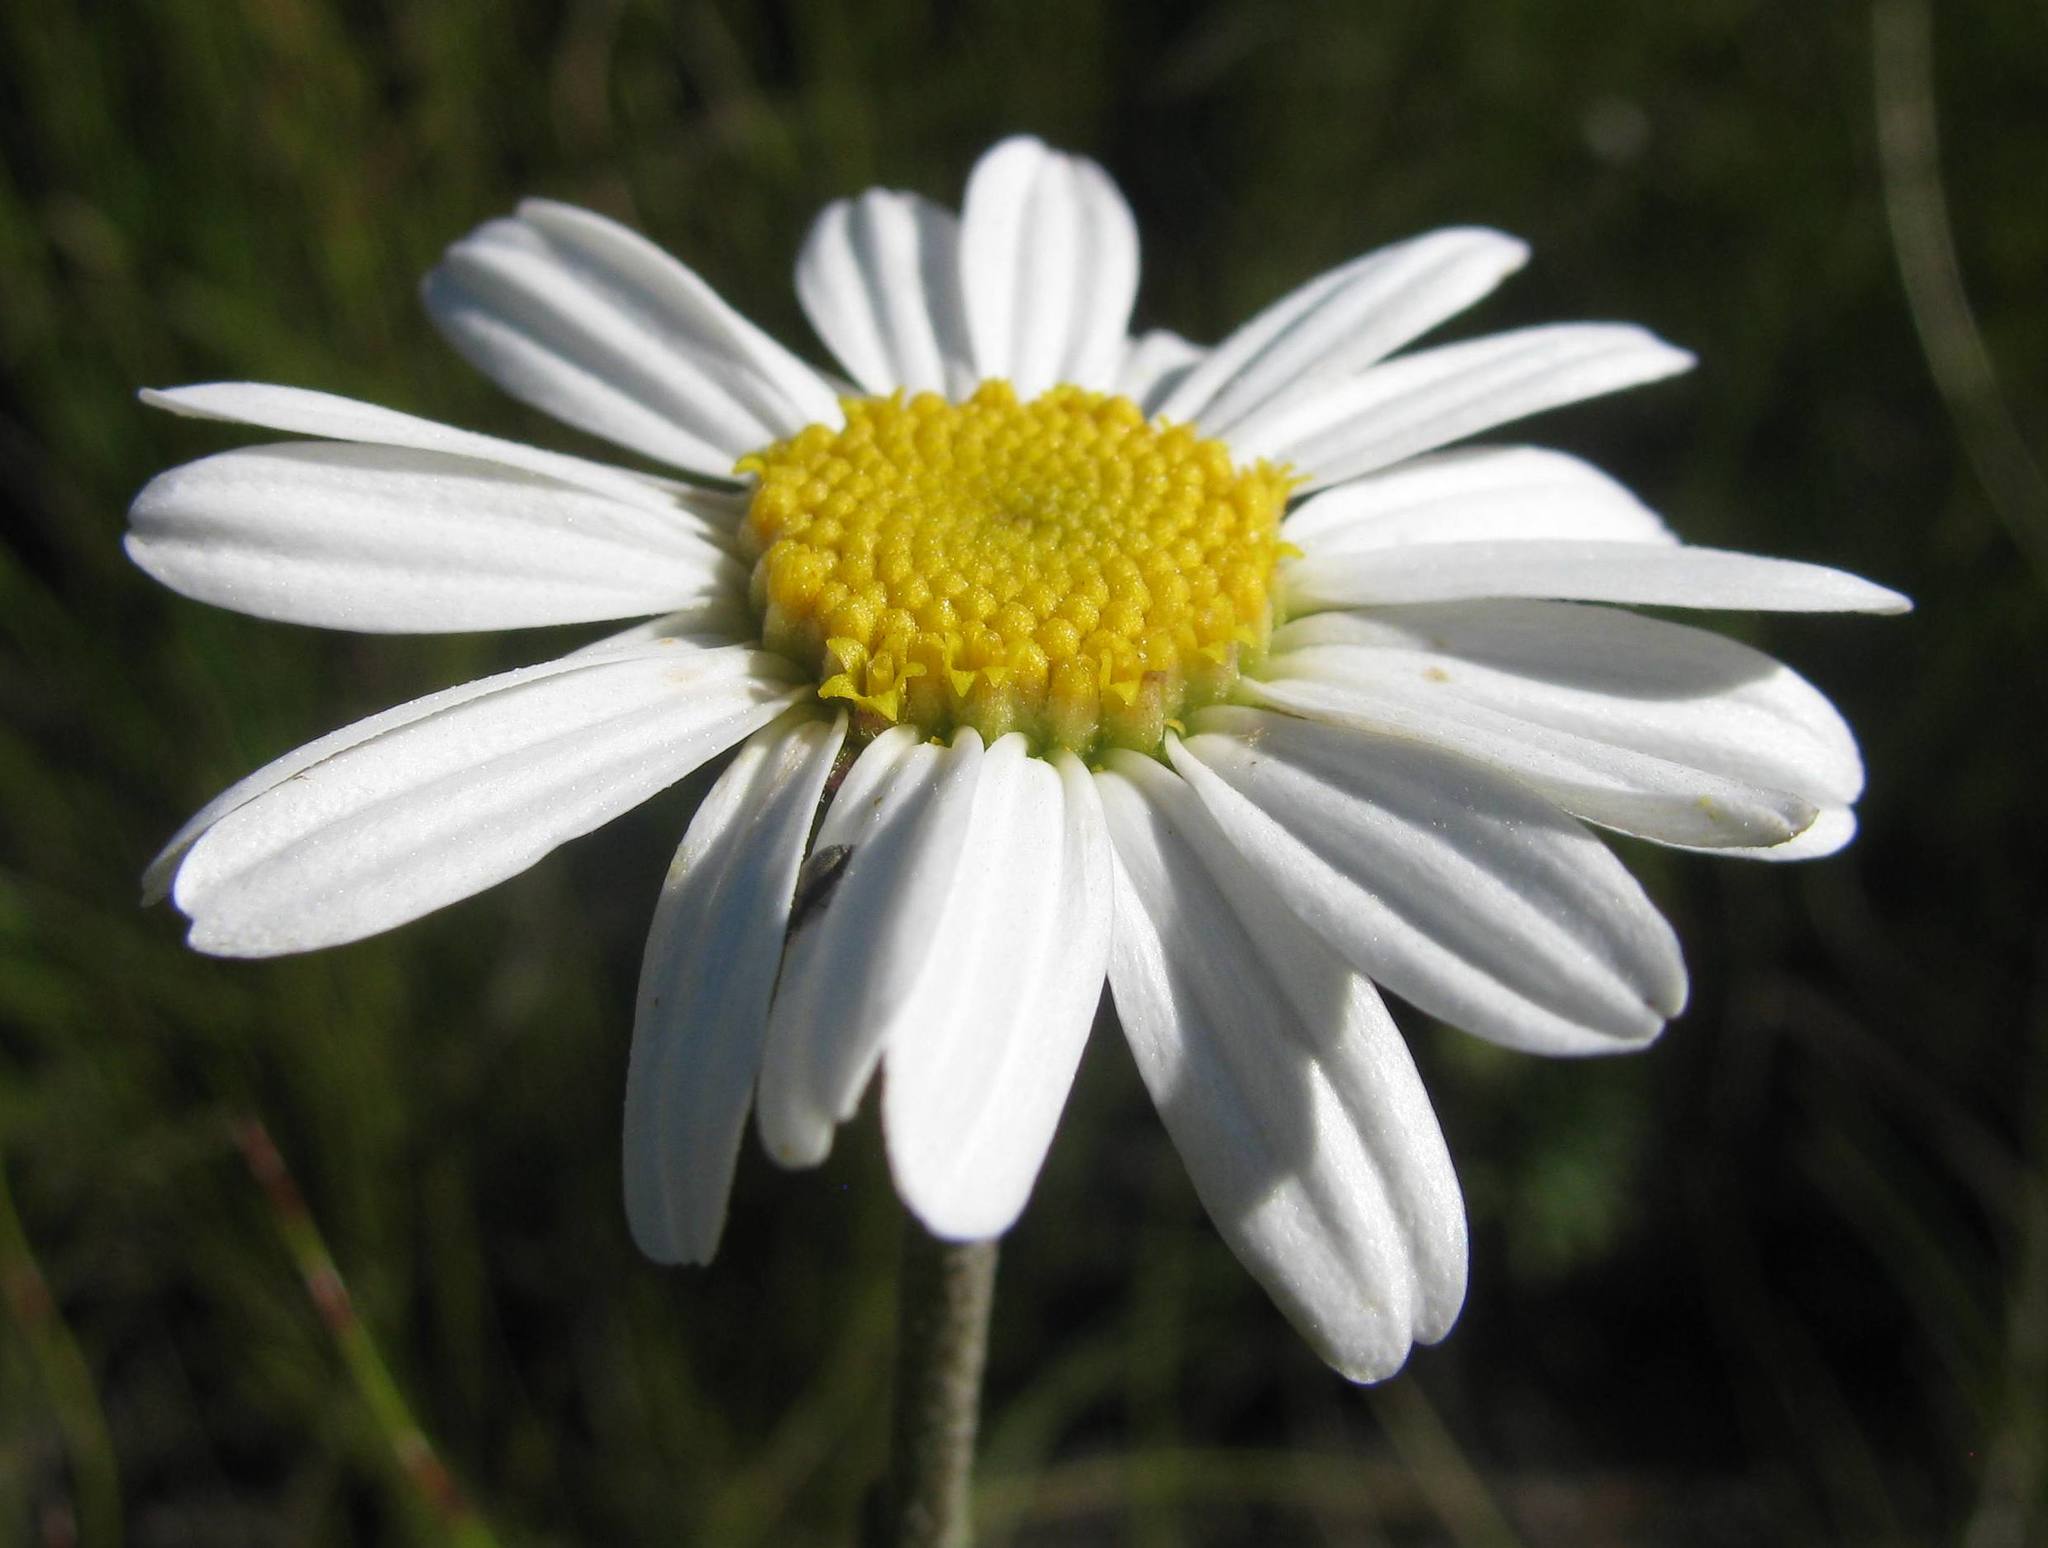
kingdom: Plantae
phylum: Tracheophyta
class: Magnoliopsida
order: Asterales
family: Asteraceae
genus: Osmitopsis
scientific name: Osmitopsis afra
